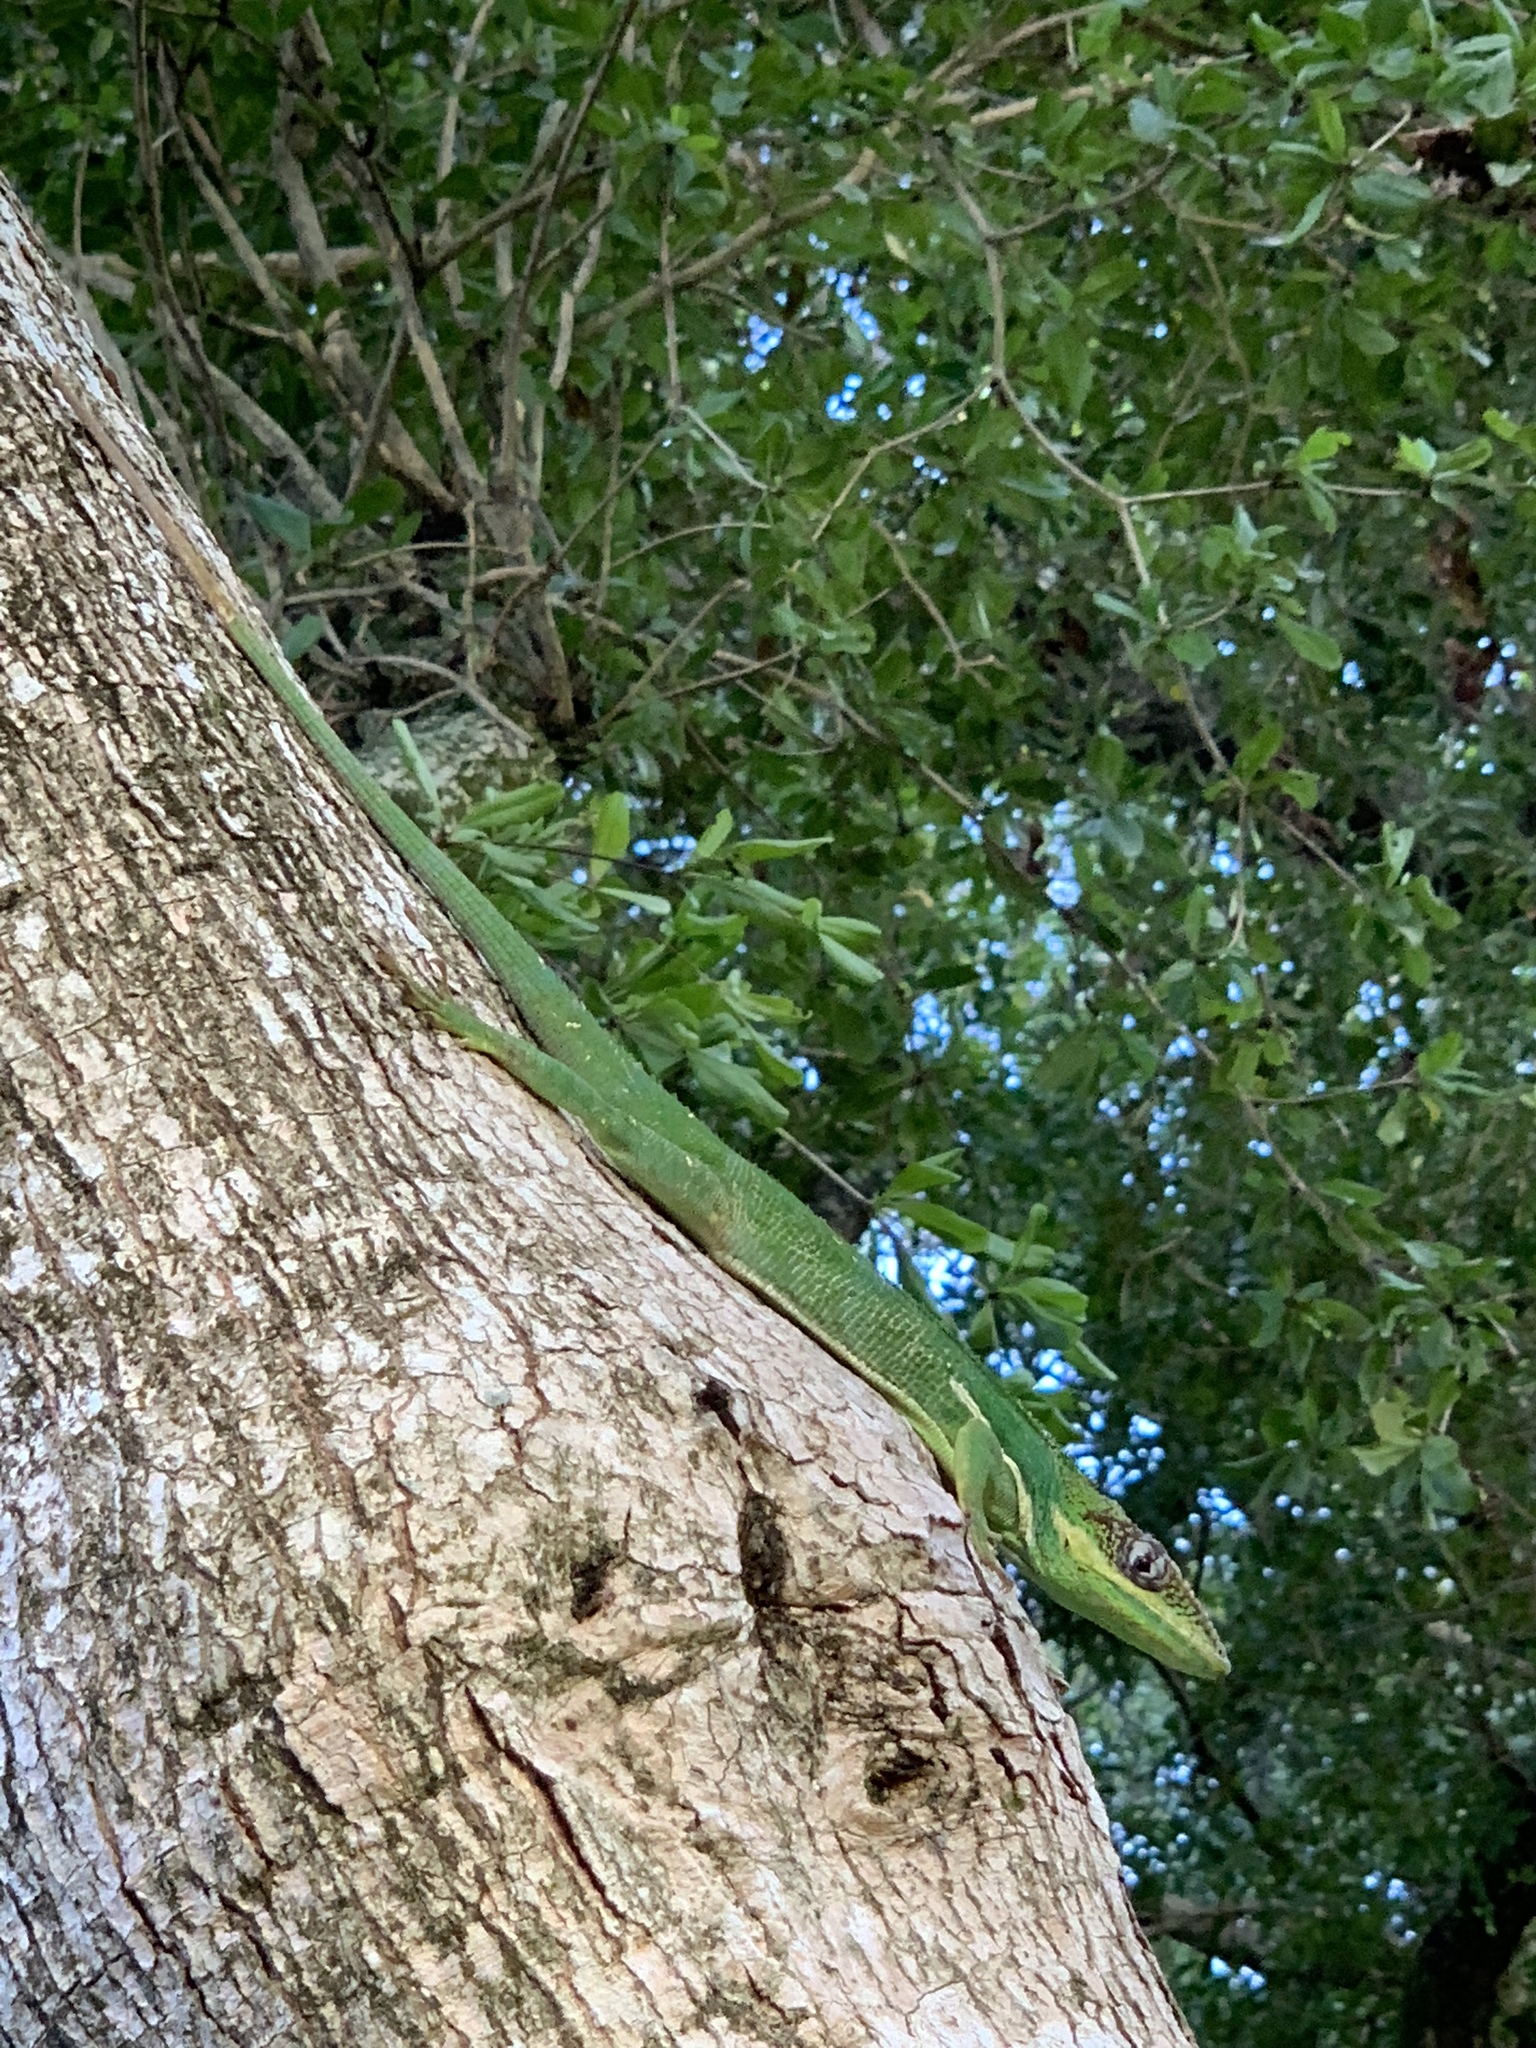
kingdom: Animalia
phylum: Chordata
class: Squamata
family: Dactyloidae
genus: Anolis
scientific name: Anolis equestris
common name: Knight anole
